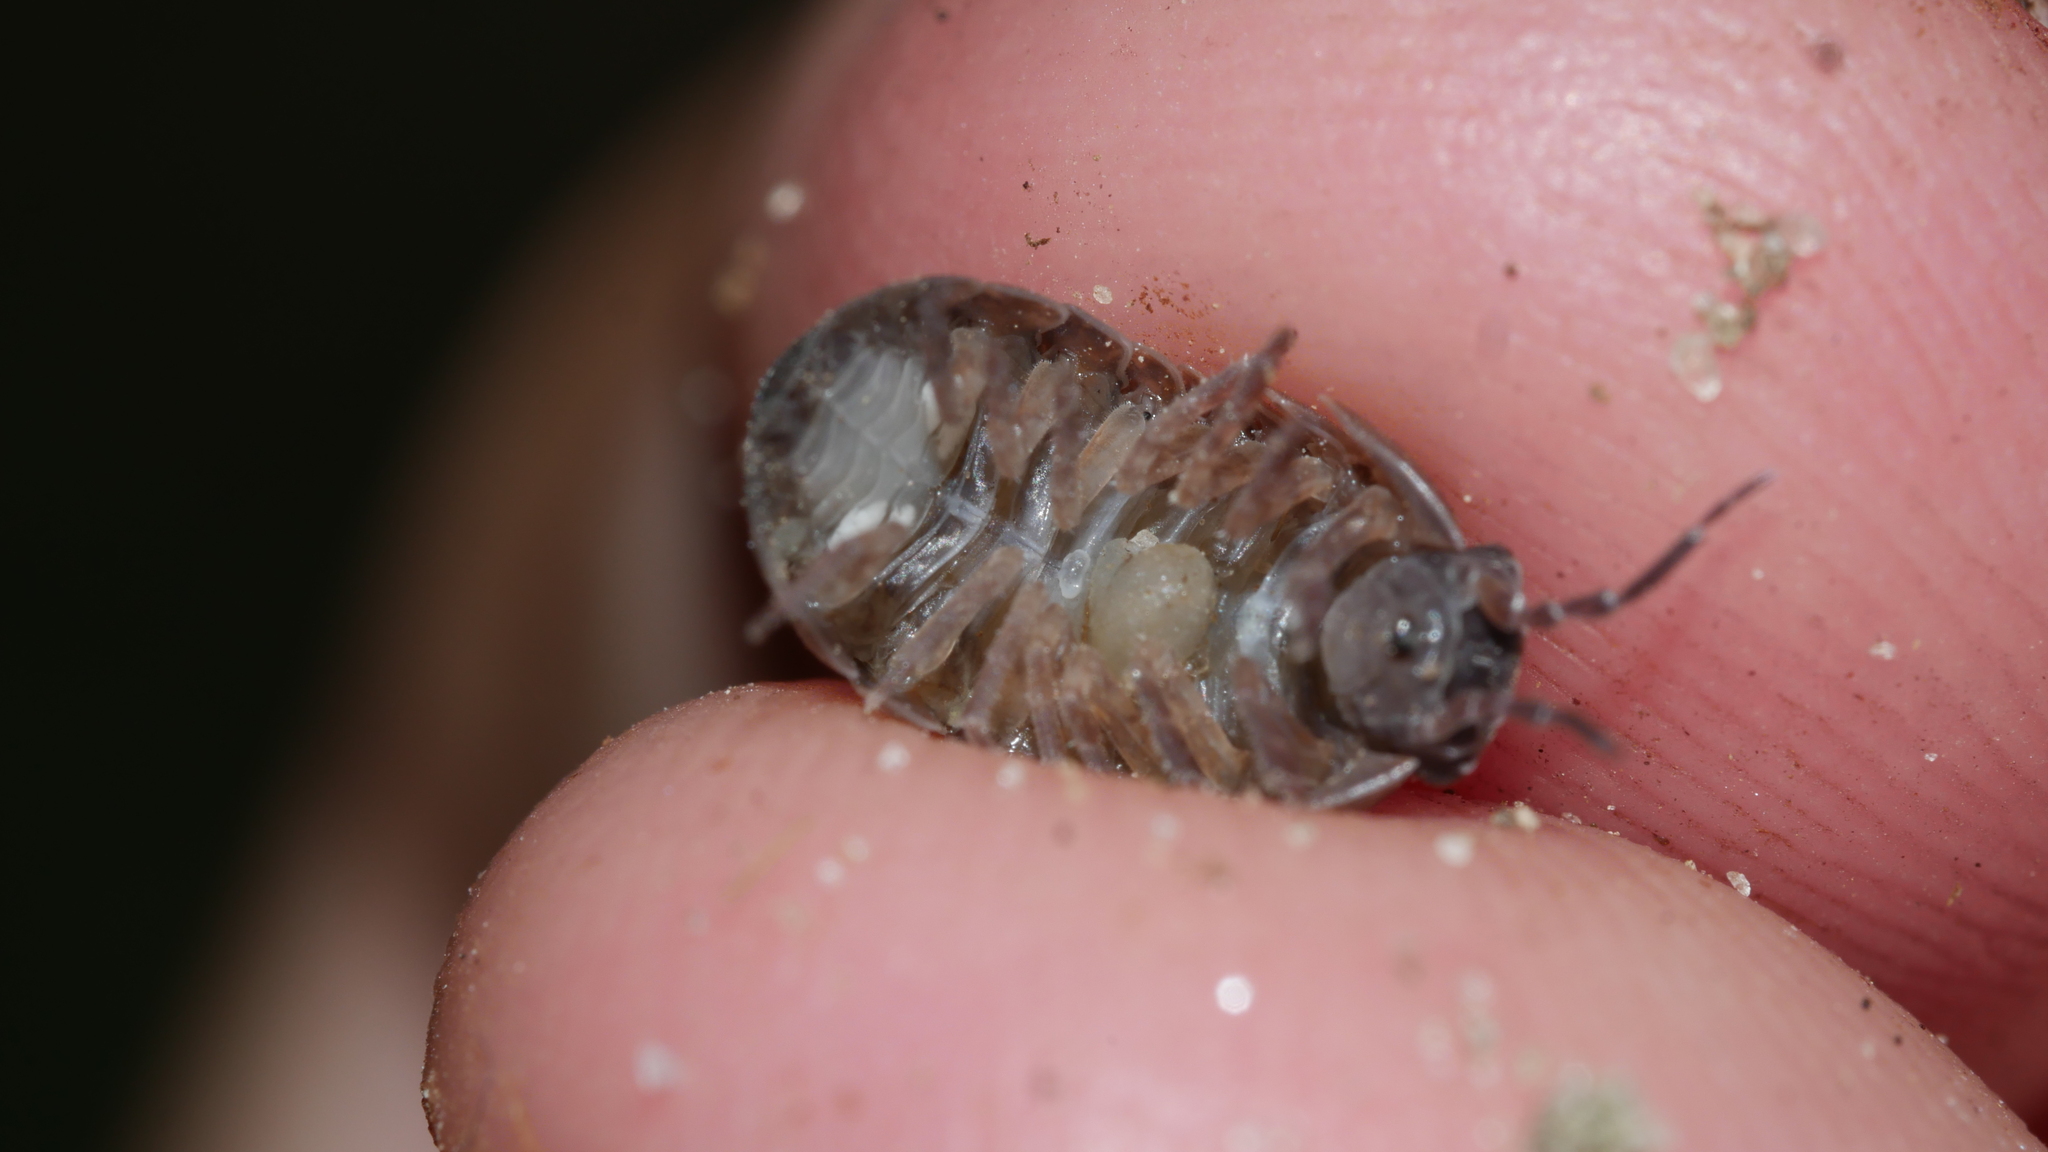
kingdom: Animalia
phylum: Arthropoda
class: Malacostraca
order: Isopoda
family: Armadillidiidae
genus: Armadillidium
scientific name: Armadillidium vulgare
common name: Common pill woodlouse
